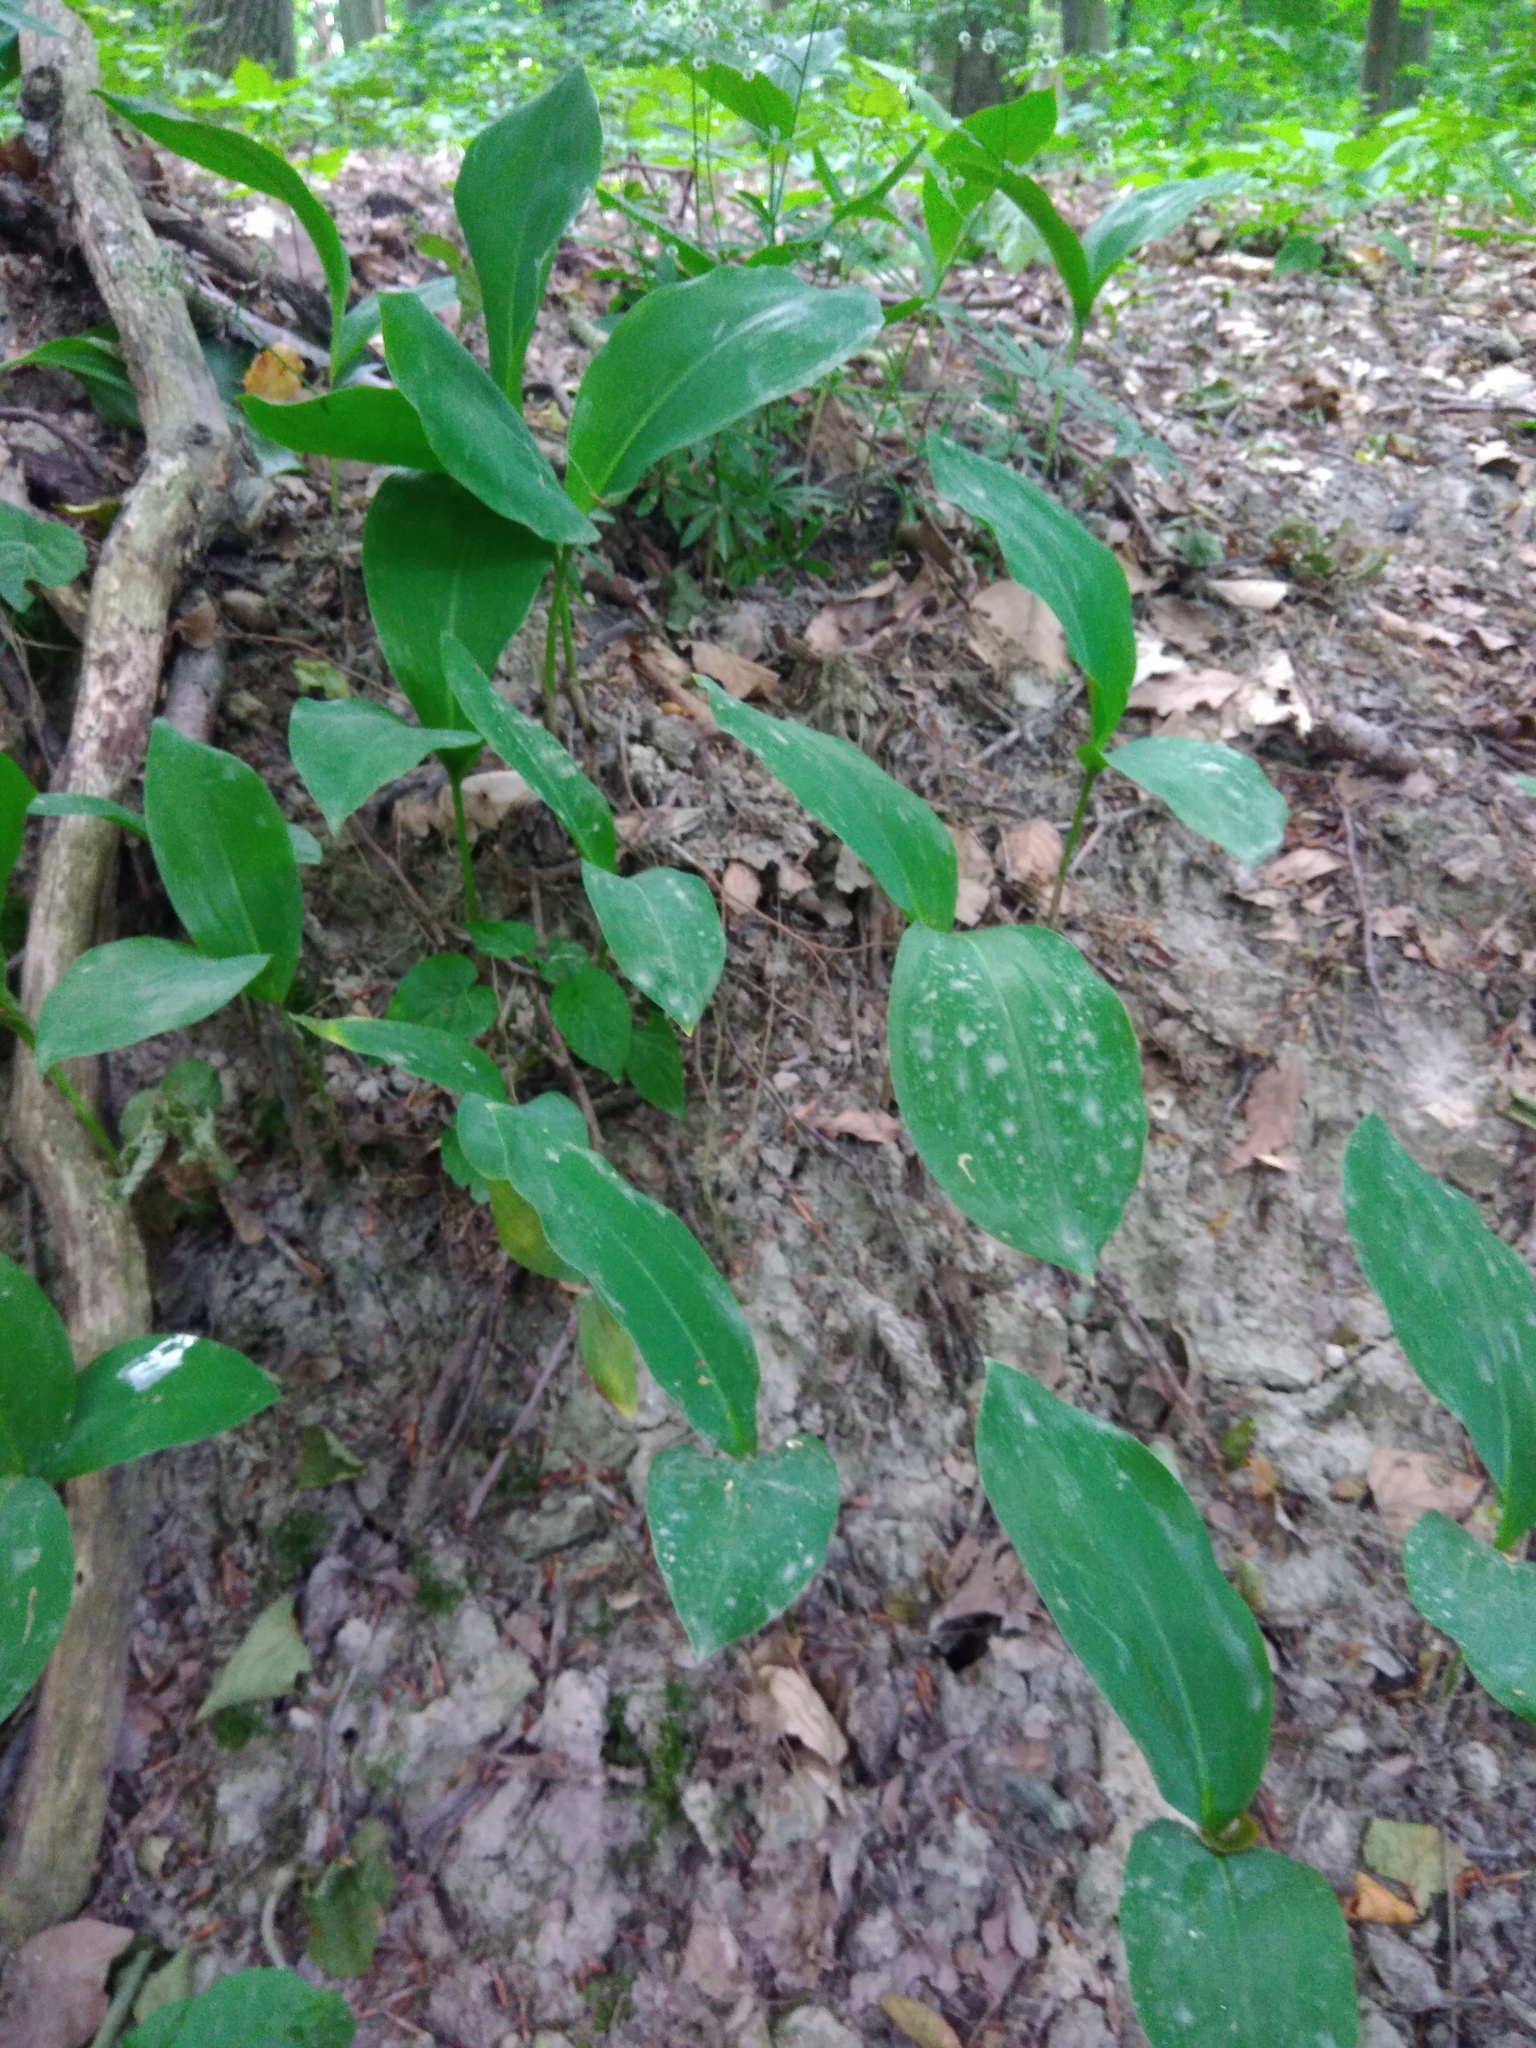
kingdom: Plantae
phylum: Tracheophyta
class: Liliopsida
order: Asparagales
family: Asparagaceae
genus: Convallaria
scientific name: Convallaria majalis
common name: Lily-of-the-valley
